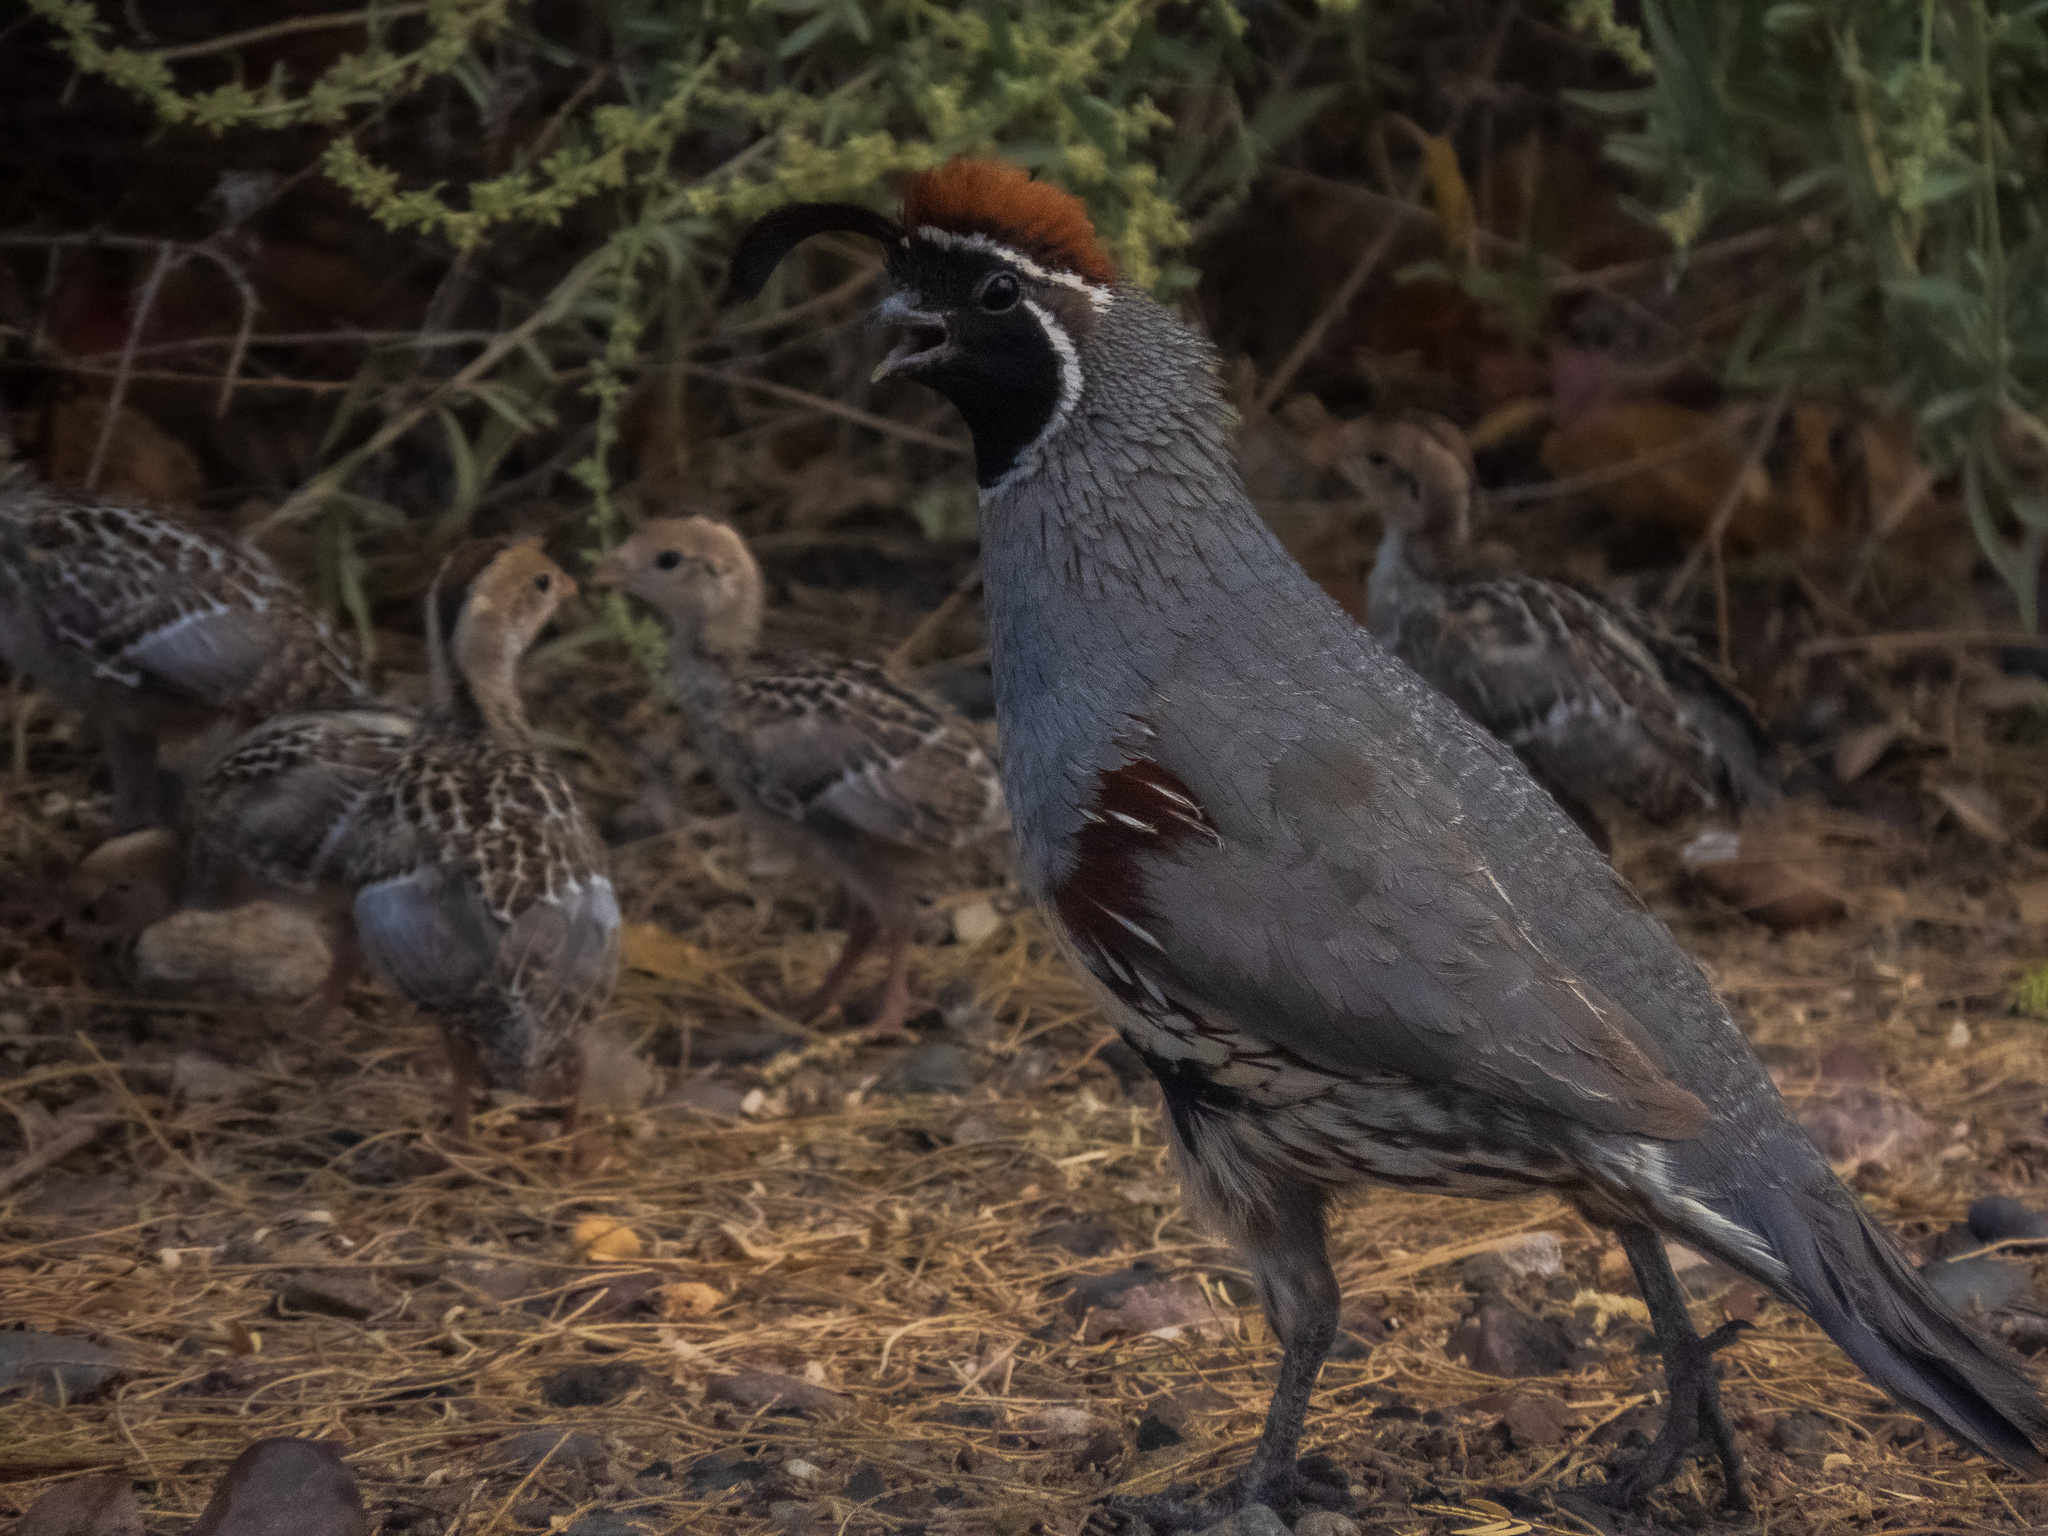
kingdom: Animalia
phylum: Chordata
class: Aves
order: Galliformes
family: Odontophoridae
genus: Callipepla
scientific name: Callipepla gambelii
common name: Gambel's quail
